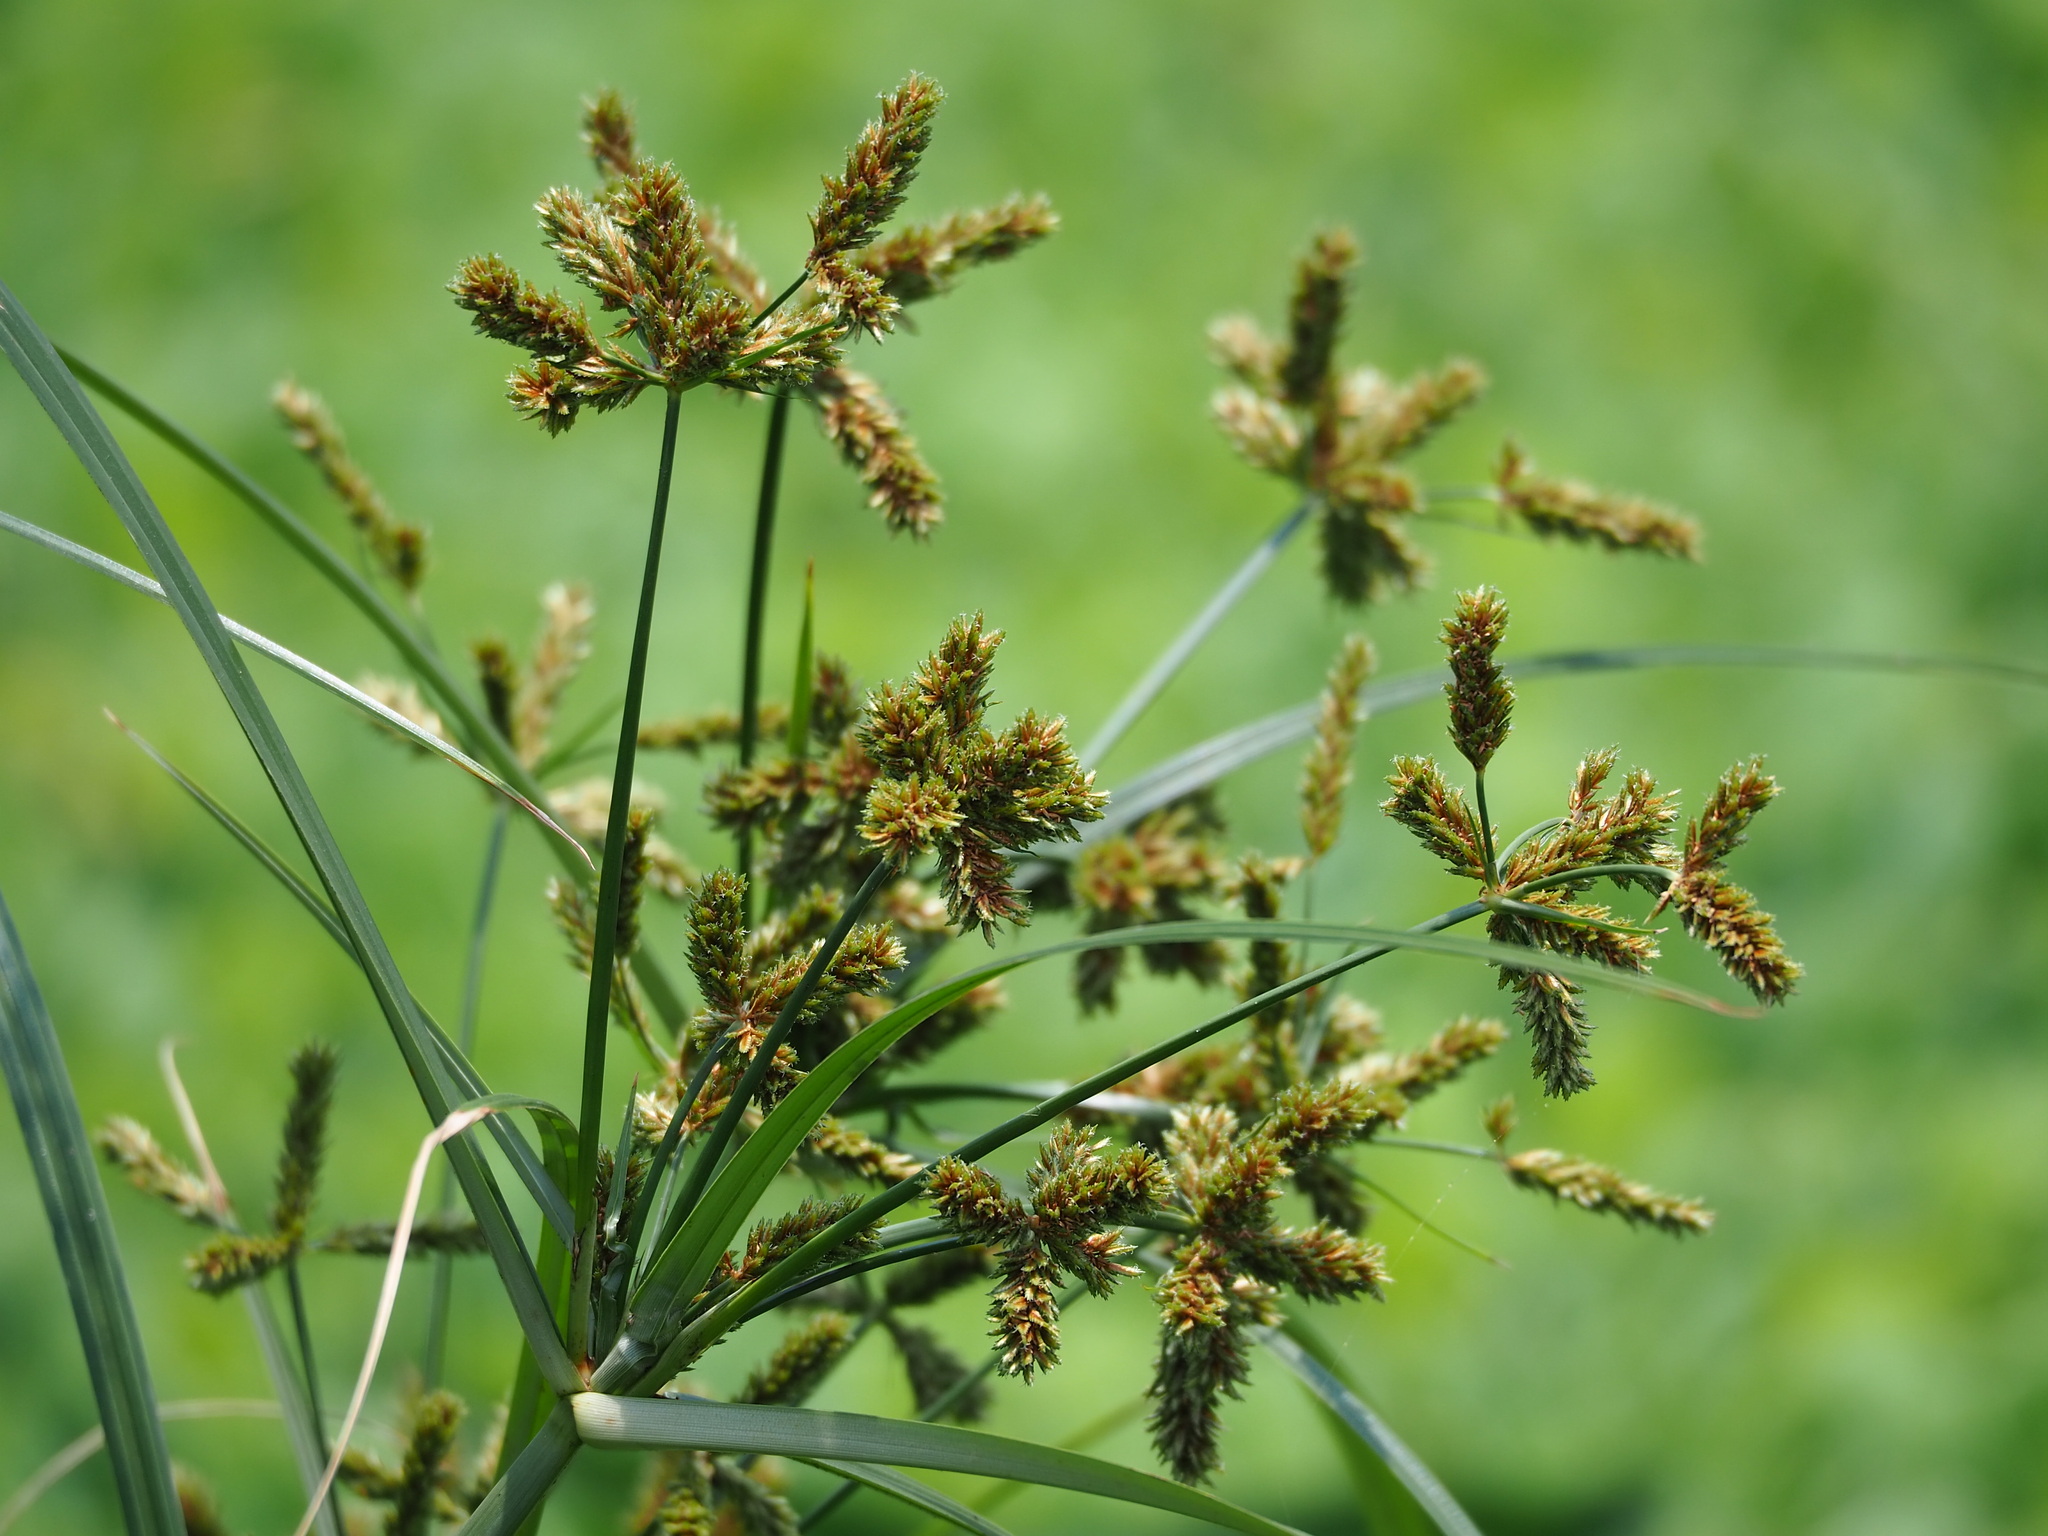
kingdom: Plantae
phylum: Tracheophyta
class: Liliopsida
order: Poales
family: Cyperaceae
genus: Cyperus
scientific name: Cyperus imbricatus
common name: Shingle flatsedge
